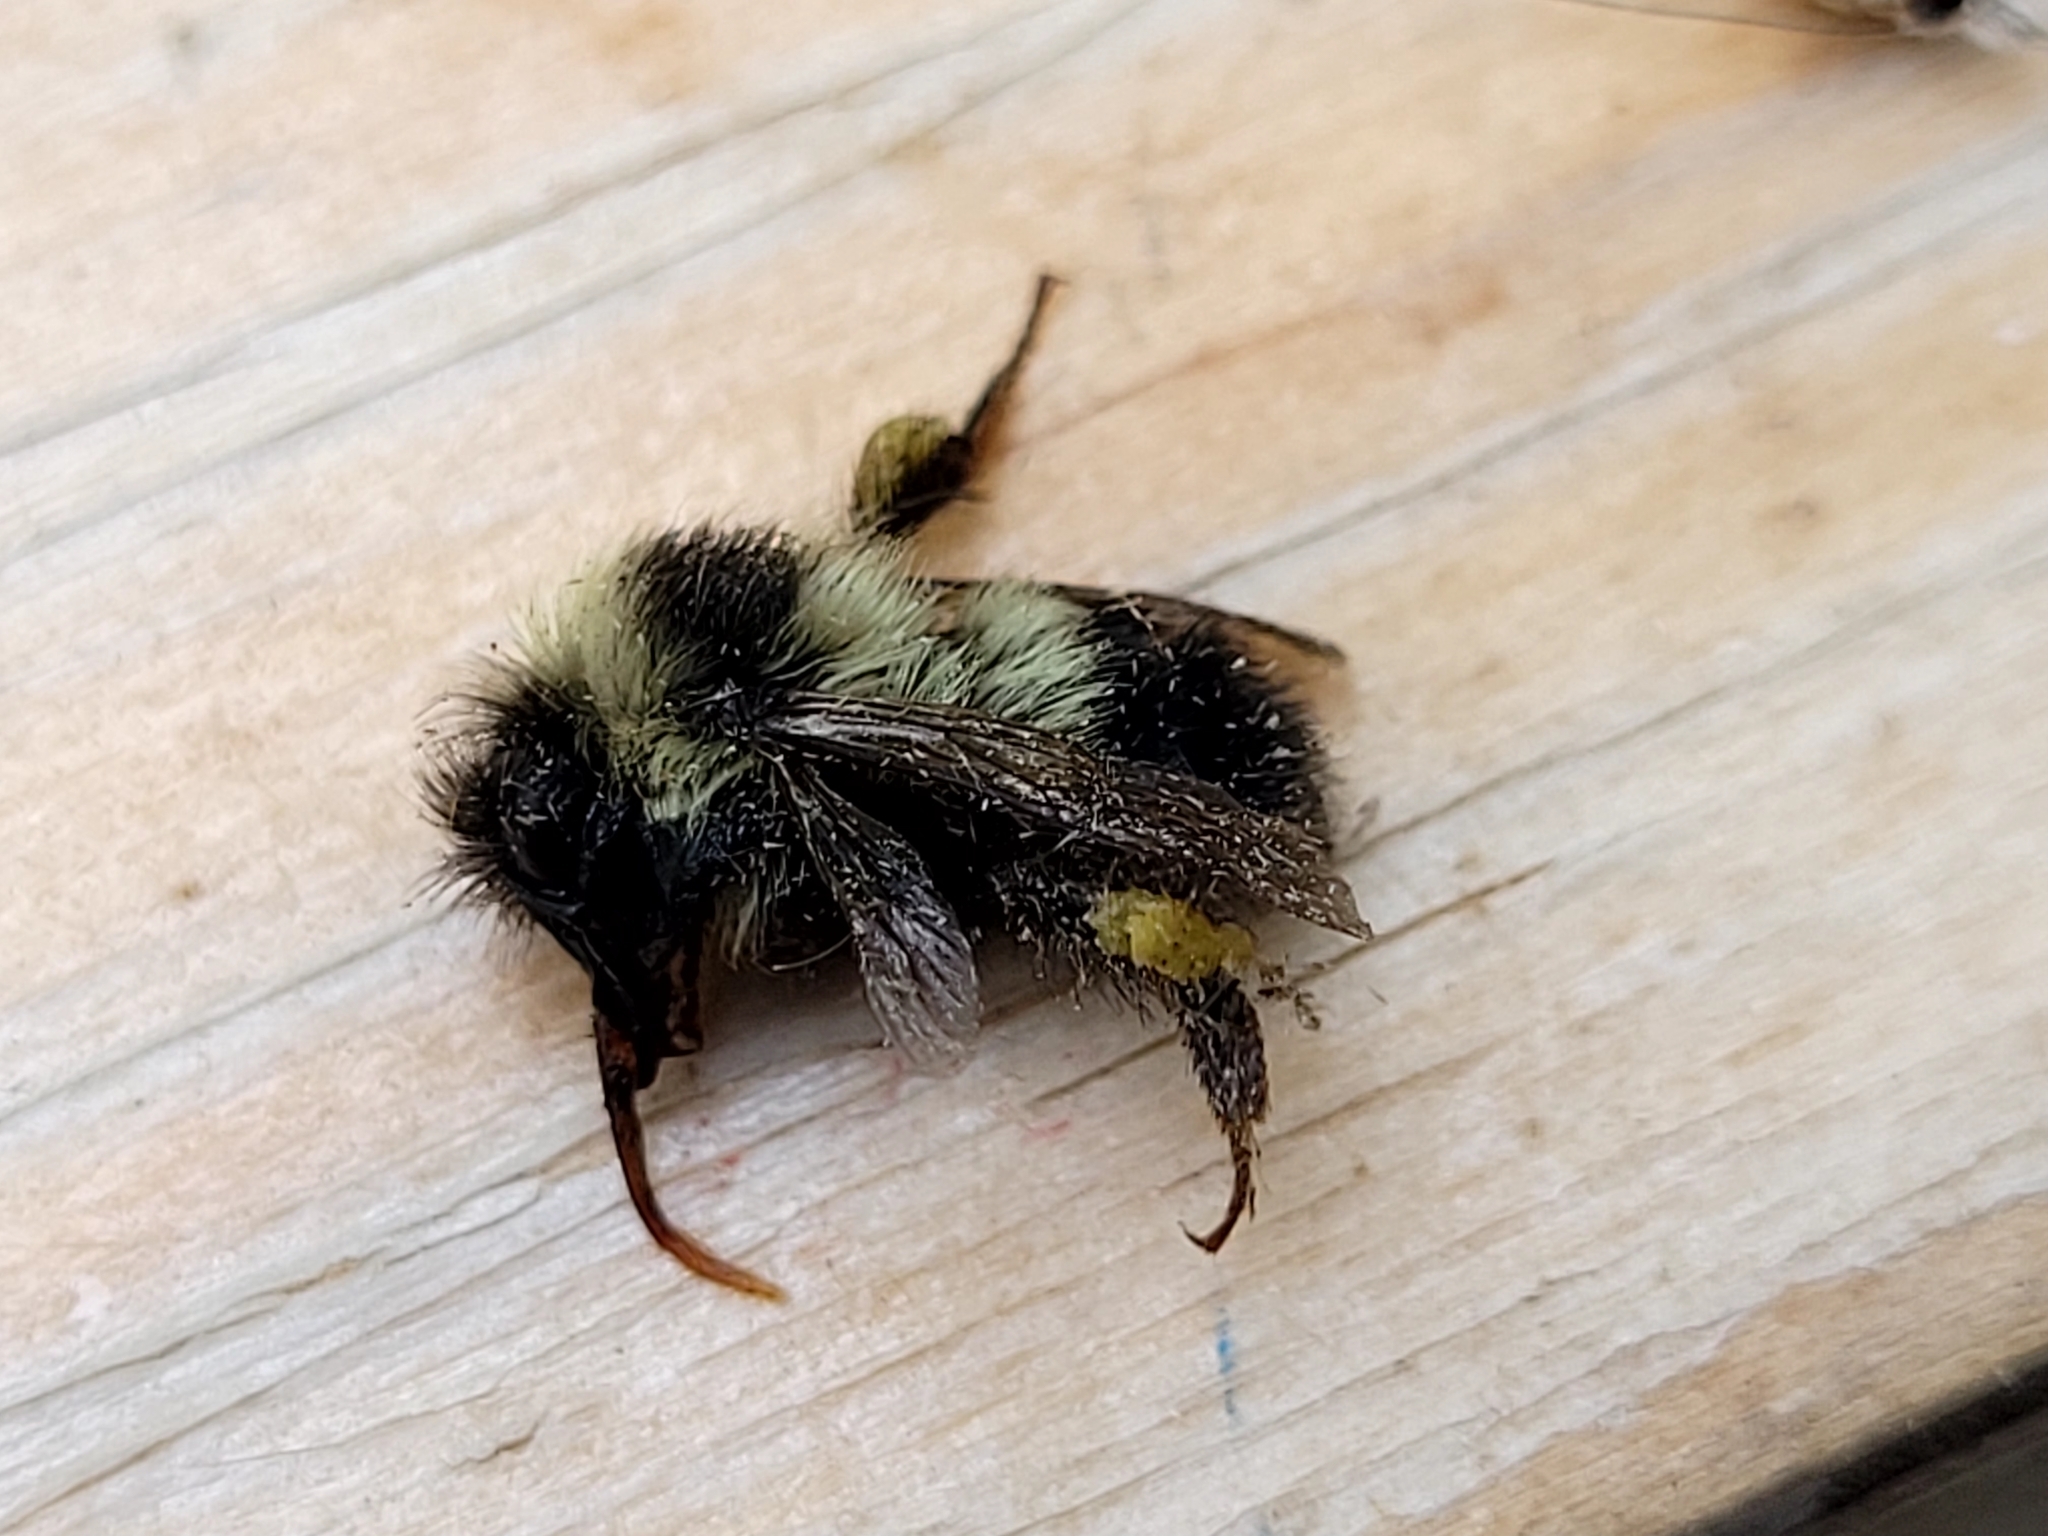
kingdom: Animalia
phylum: Arthropoda
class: Insecta
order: Hymenoptera
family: Apidae
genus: Bombus
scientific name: Bombus rufocinctus
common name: Red-belted bumble bee
